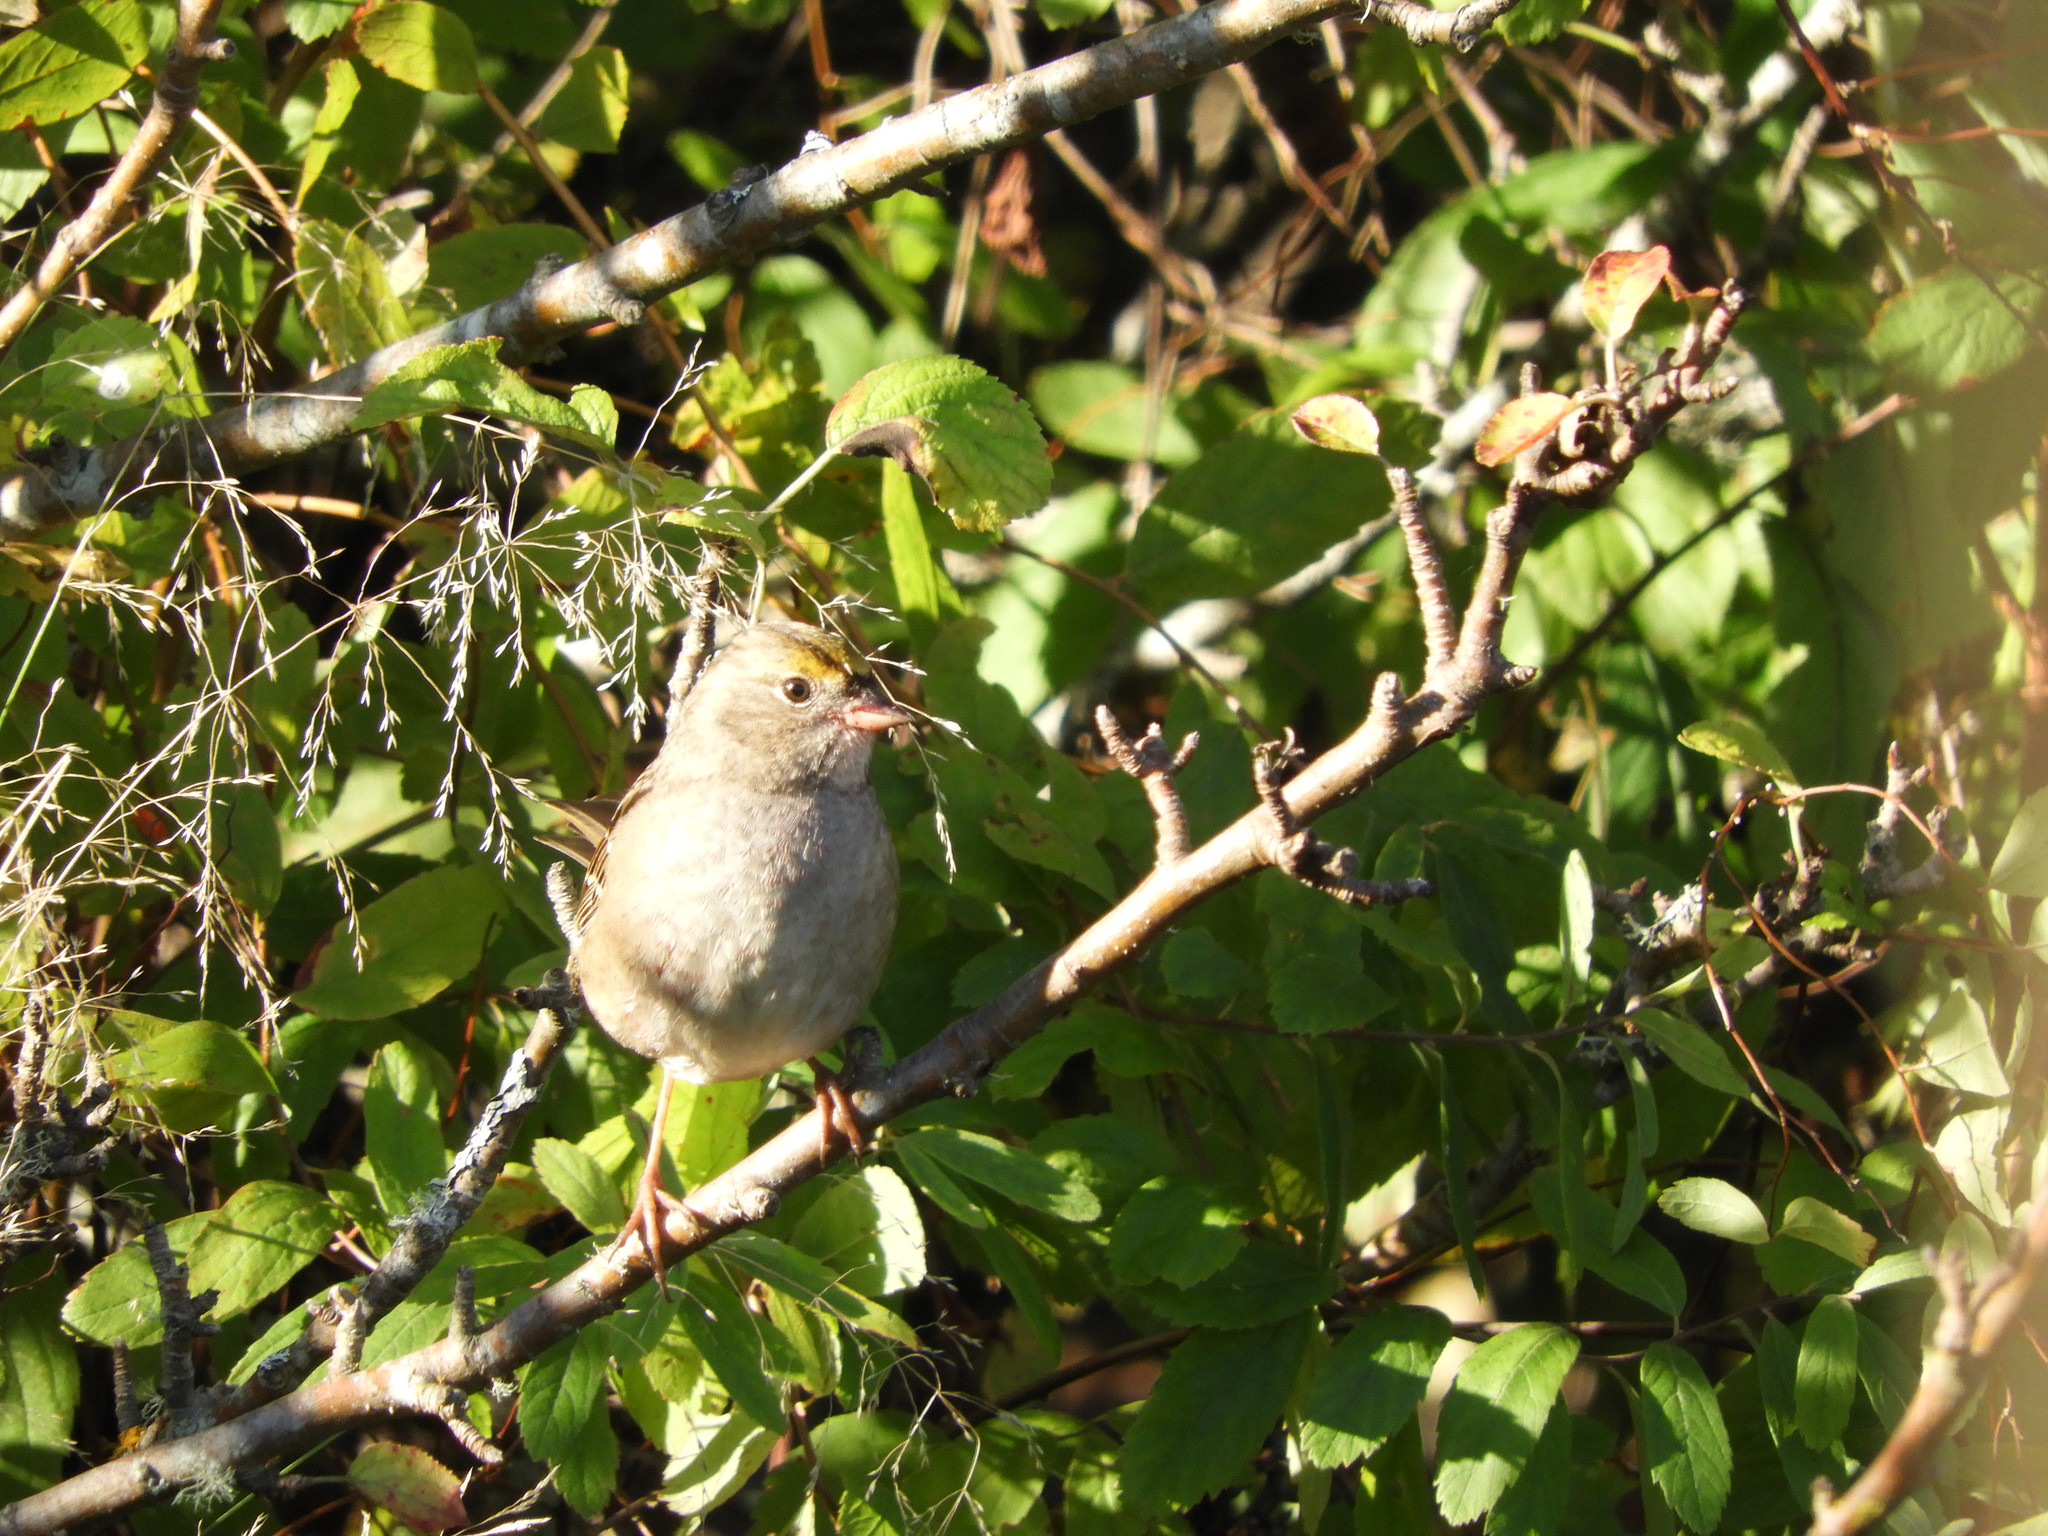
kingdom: Animalia
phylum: Chordata
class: Aves
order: Passeriformes
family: Passerellidae
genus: Zonotrichia
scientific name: Zonotrichia atricapilla
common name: Golden-crowned sparrow
